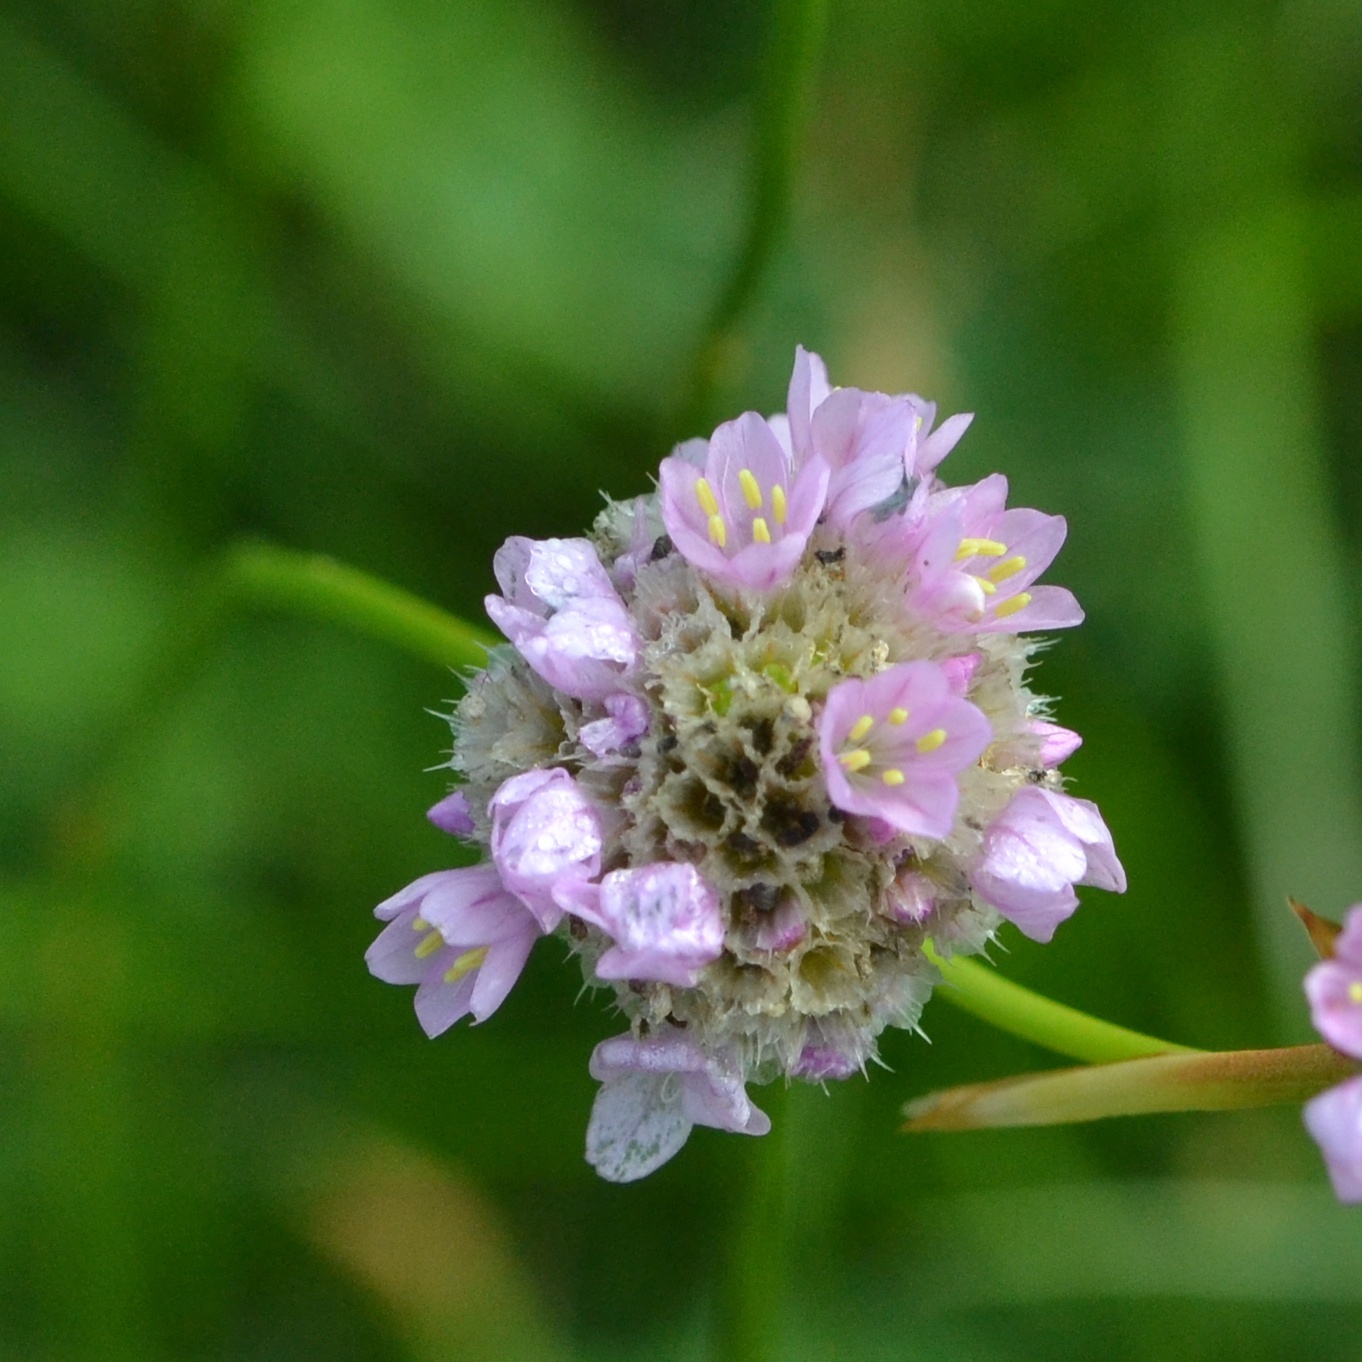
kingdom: Plantae
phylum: Tracheophyta
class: Magnoliopsida
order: Caryophyllales
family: Plumbaginaceae
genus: Armeria
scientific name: Armeria maritima
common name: Thrift
